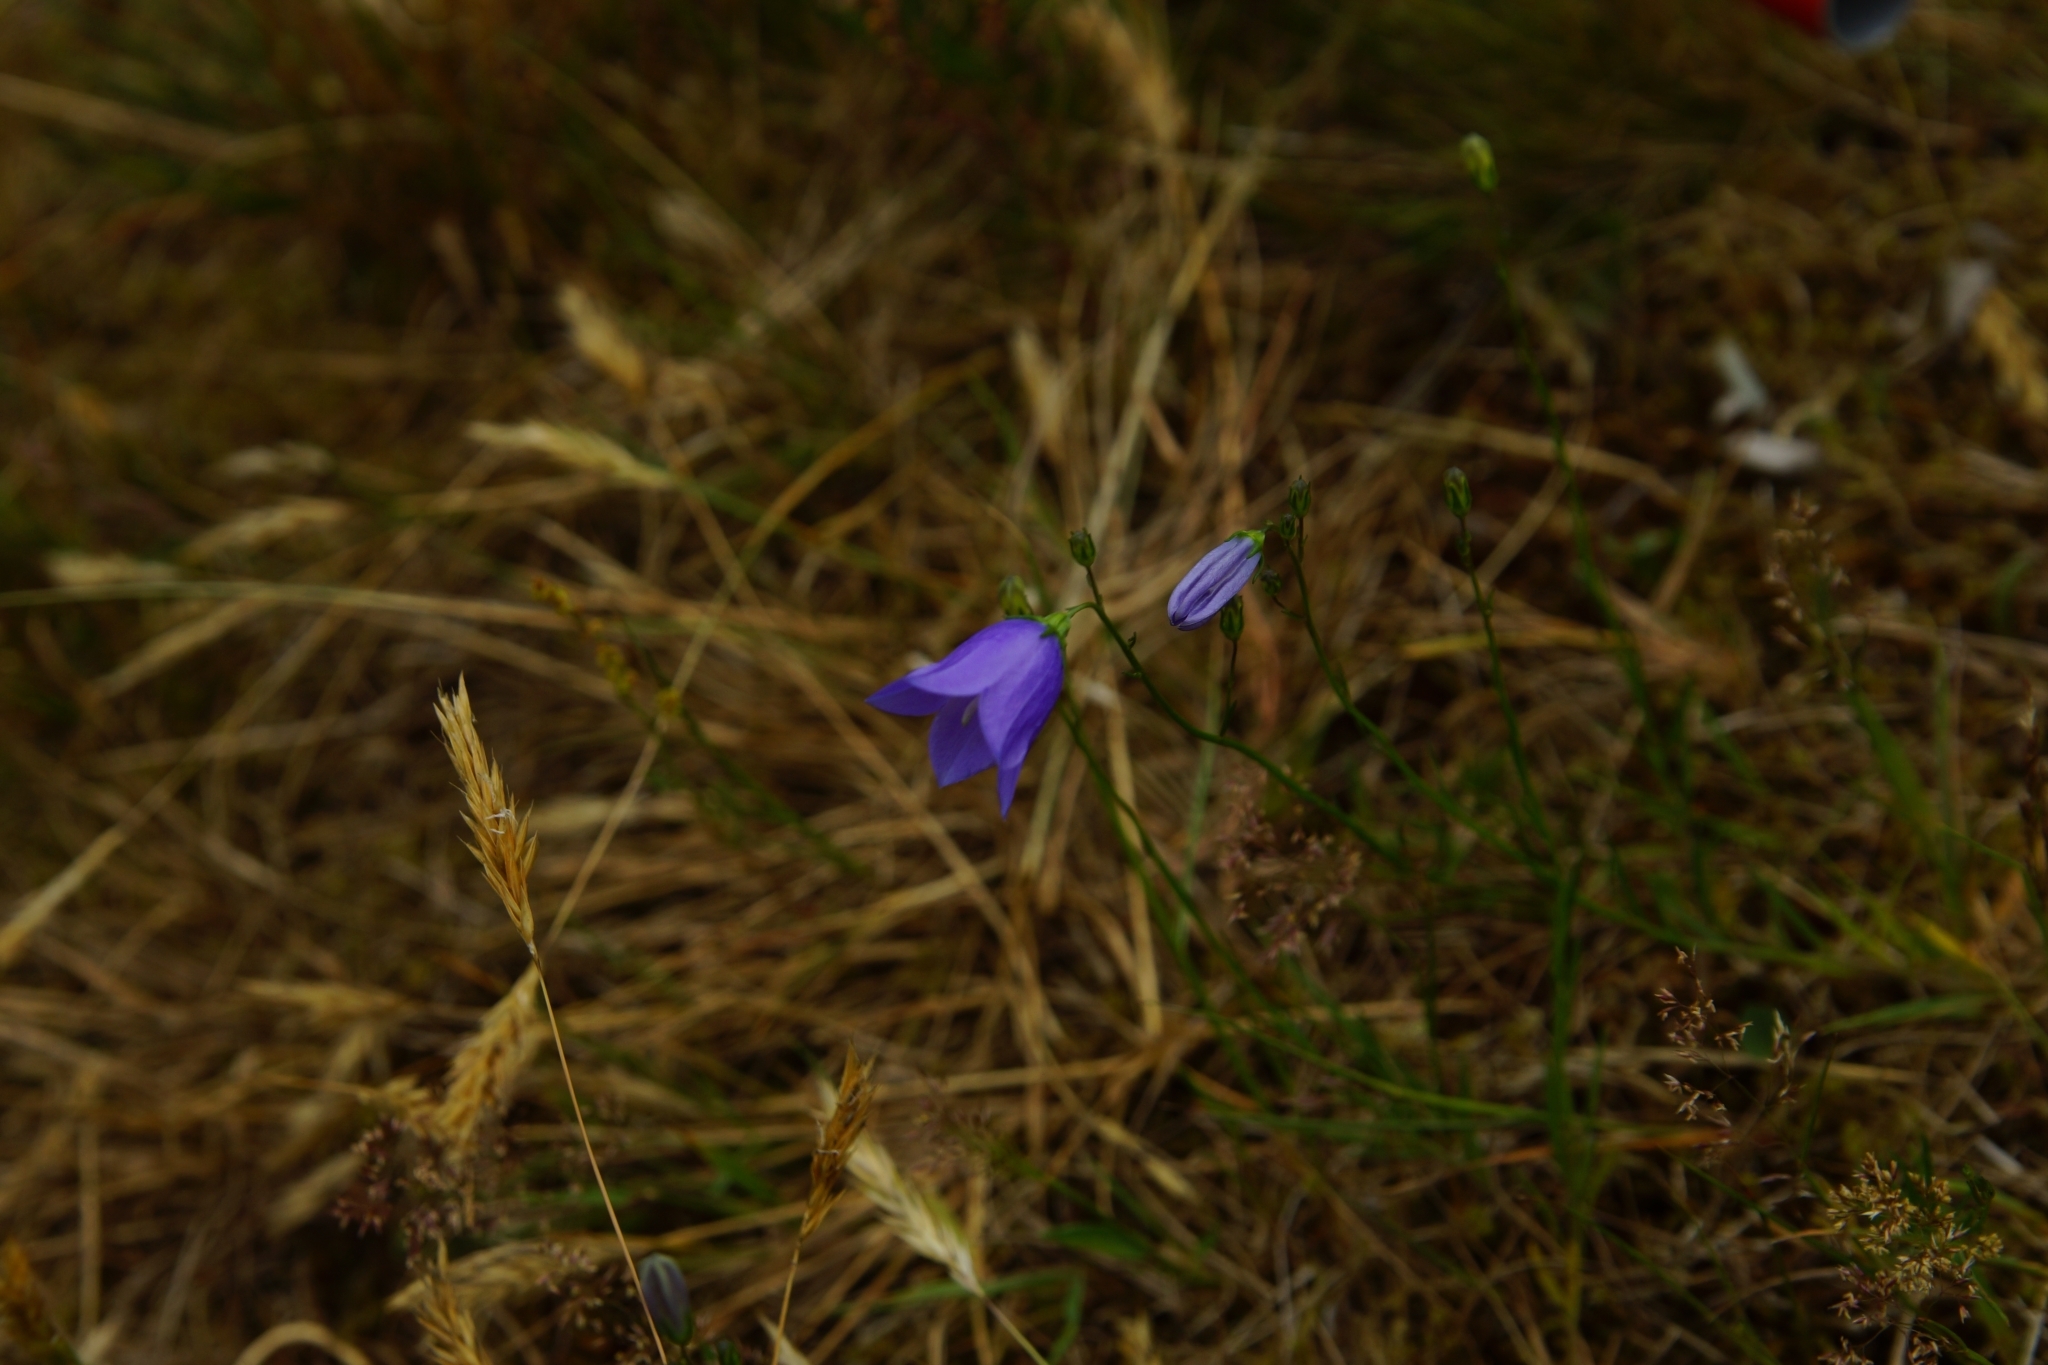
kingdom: Plantae
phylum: Tracheophyta
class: Magnoliopsida
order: Asterales
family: Campanulaceae
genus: Campanula
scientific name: Campanula rotundifolia
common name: Harebell
